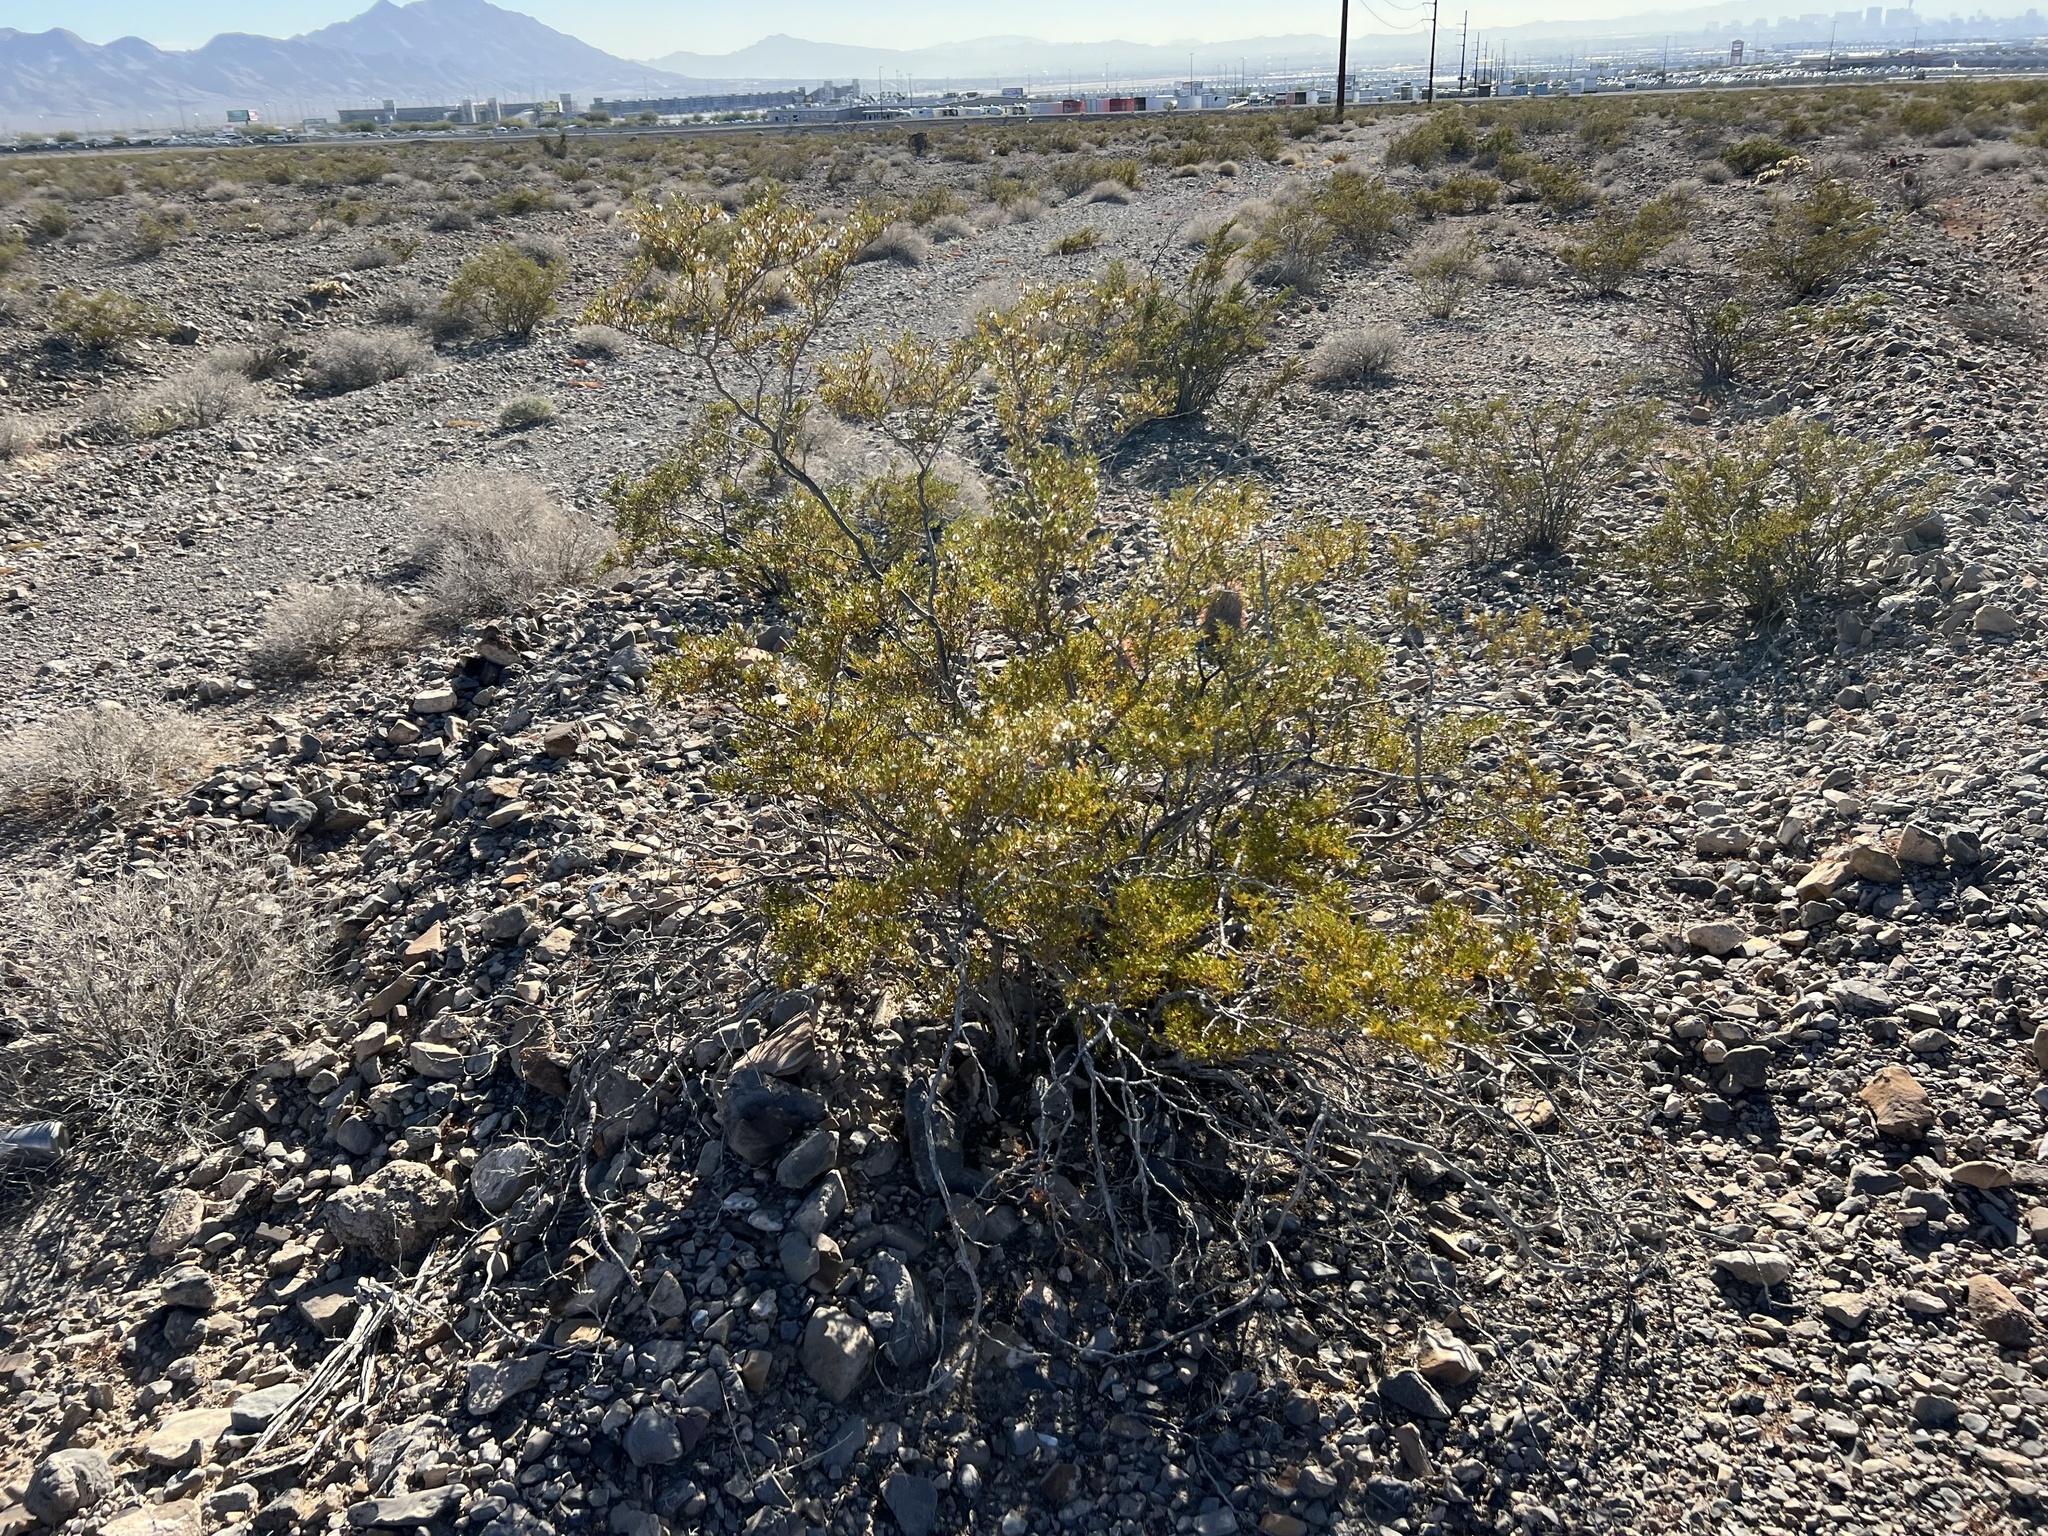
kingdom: Plantae
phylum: Tracheophyta
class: Magnoliopsida
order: Zygophyllales
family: Zygophyllaceae
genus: Larrea
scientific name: Larrea tridentata
